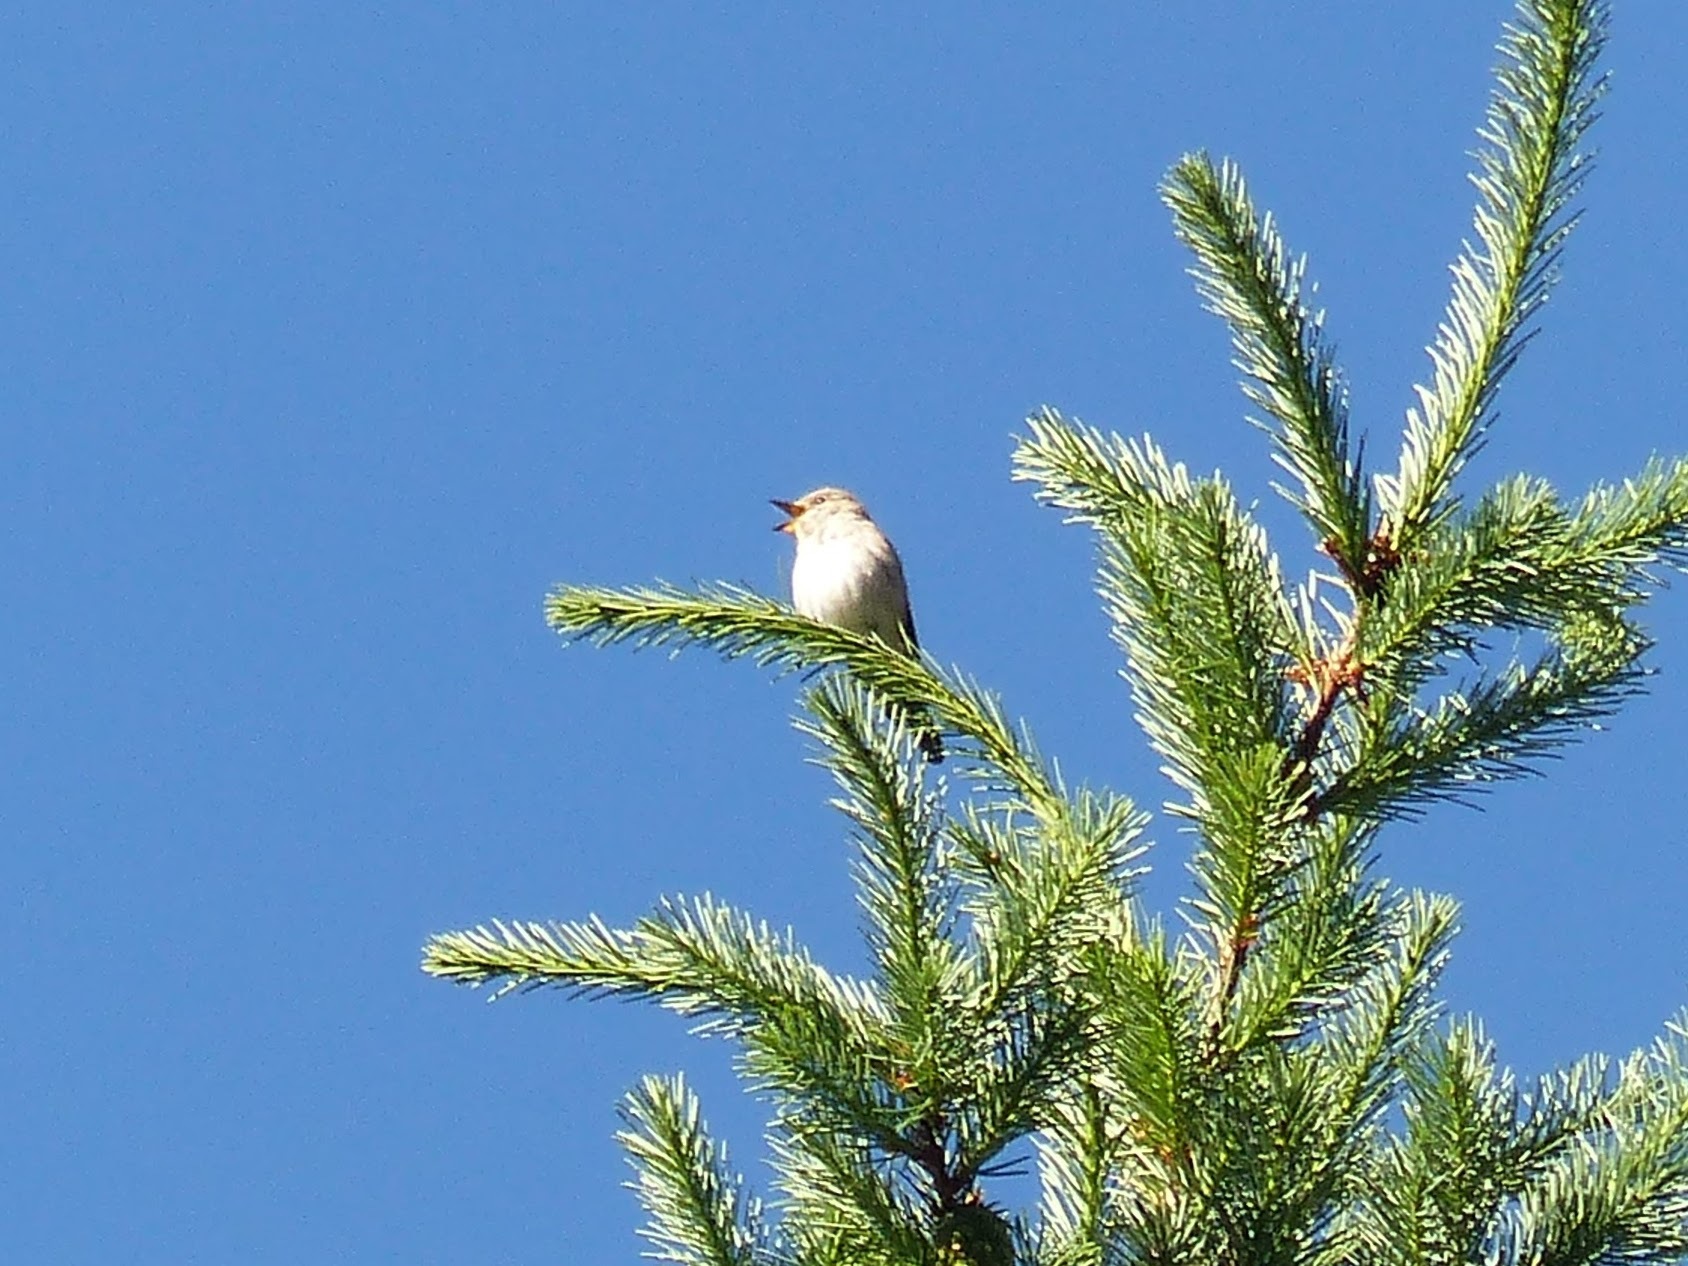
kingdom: Animalia
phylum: Chordata
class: Aves
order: Passeriformes
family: Muscicapidae
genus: Muscicapa
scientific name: Muscicapa striata
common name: Spotted flycatcher
